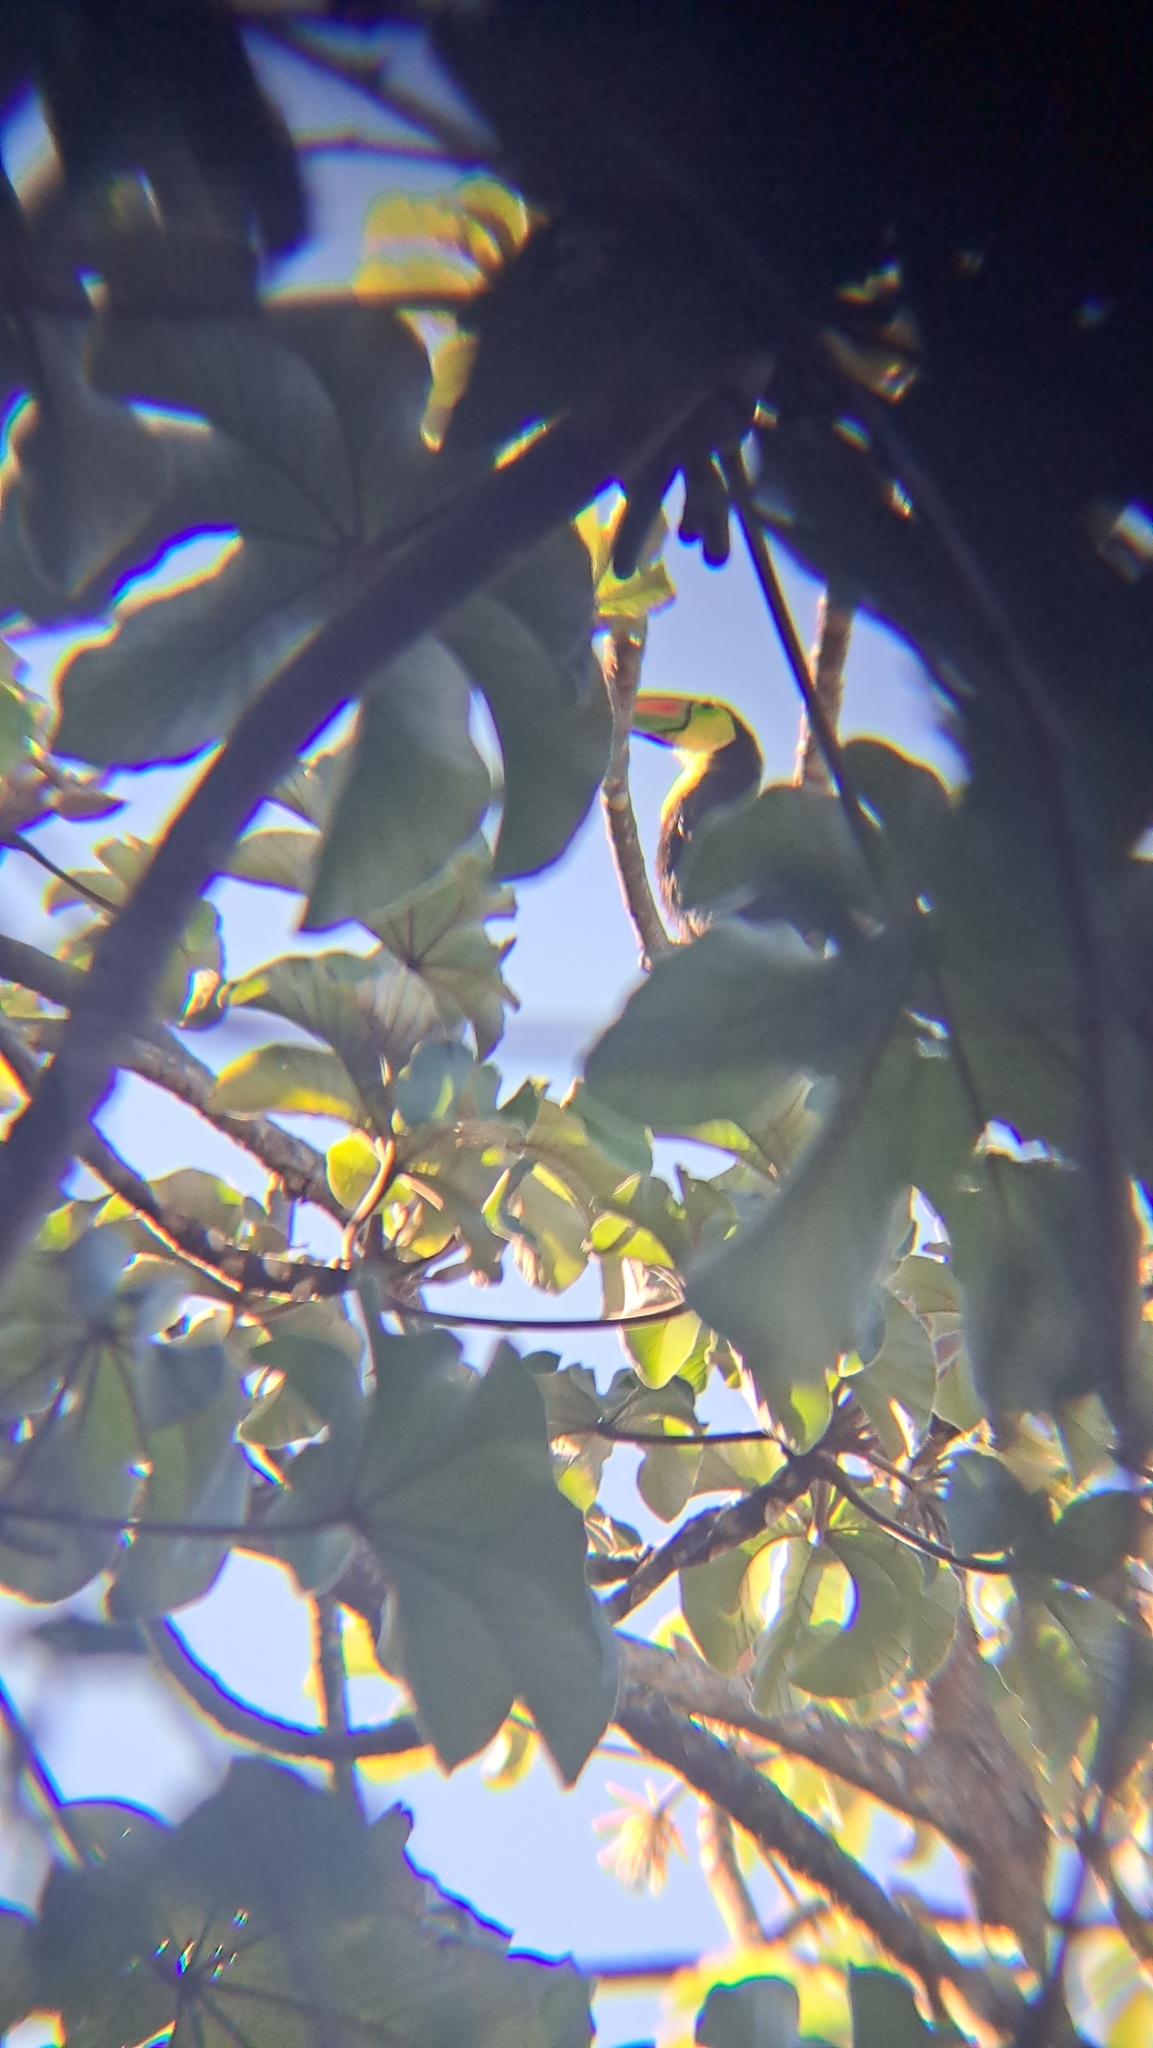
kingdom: Animalia
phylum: Chordata
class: Aves
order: Piciformes
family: Ramphastidae
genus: Ramphastos
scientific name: Ramphastos sulfuratus
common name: Keel-billed toucan
